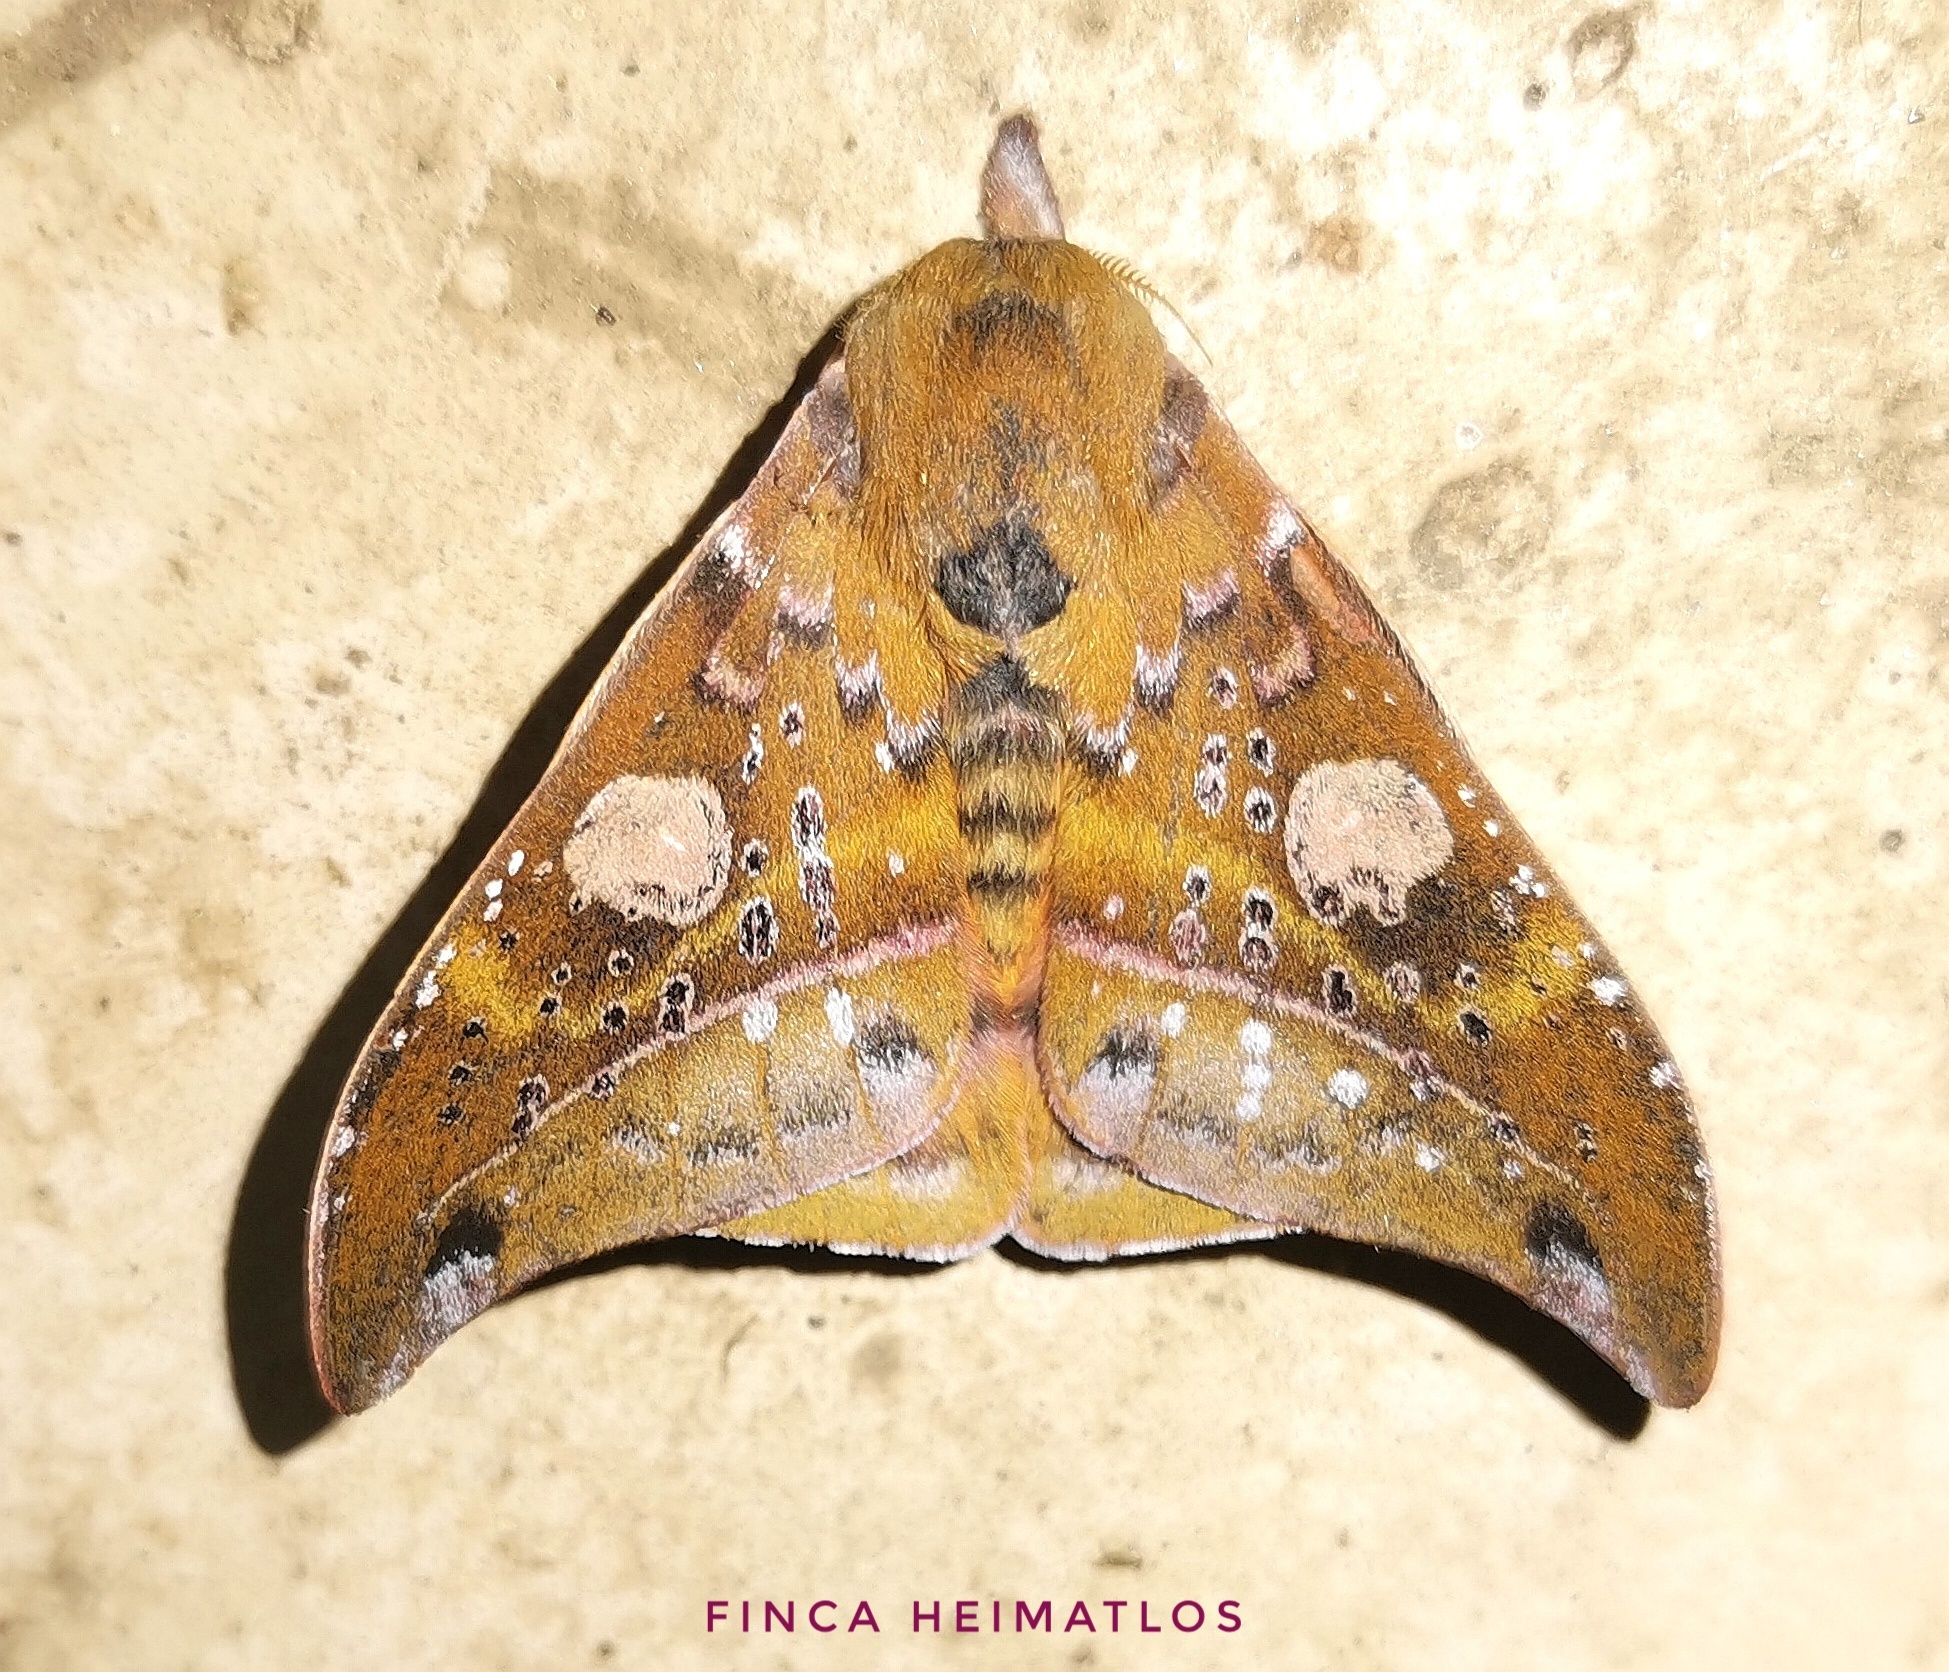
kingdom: Animalia
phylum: Arthropoda
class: Insecta
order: Lepidoptera
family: Saturniidae
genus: Automerina
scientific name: Automerina auletes
